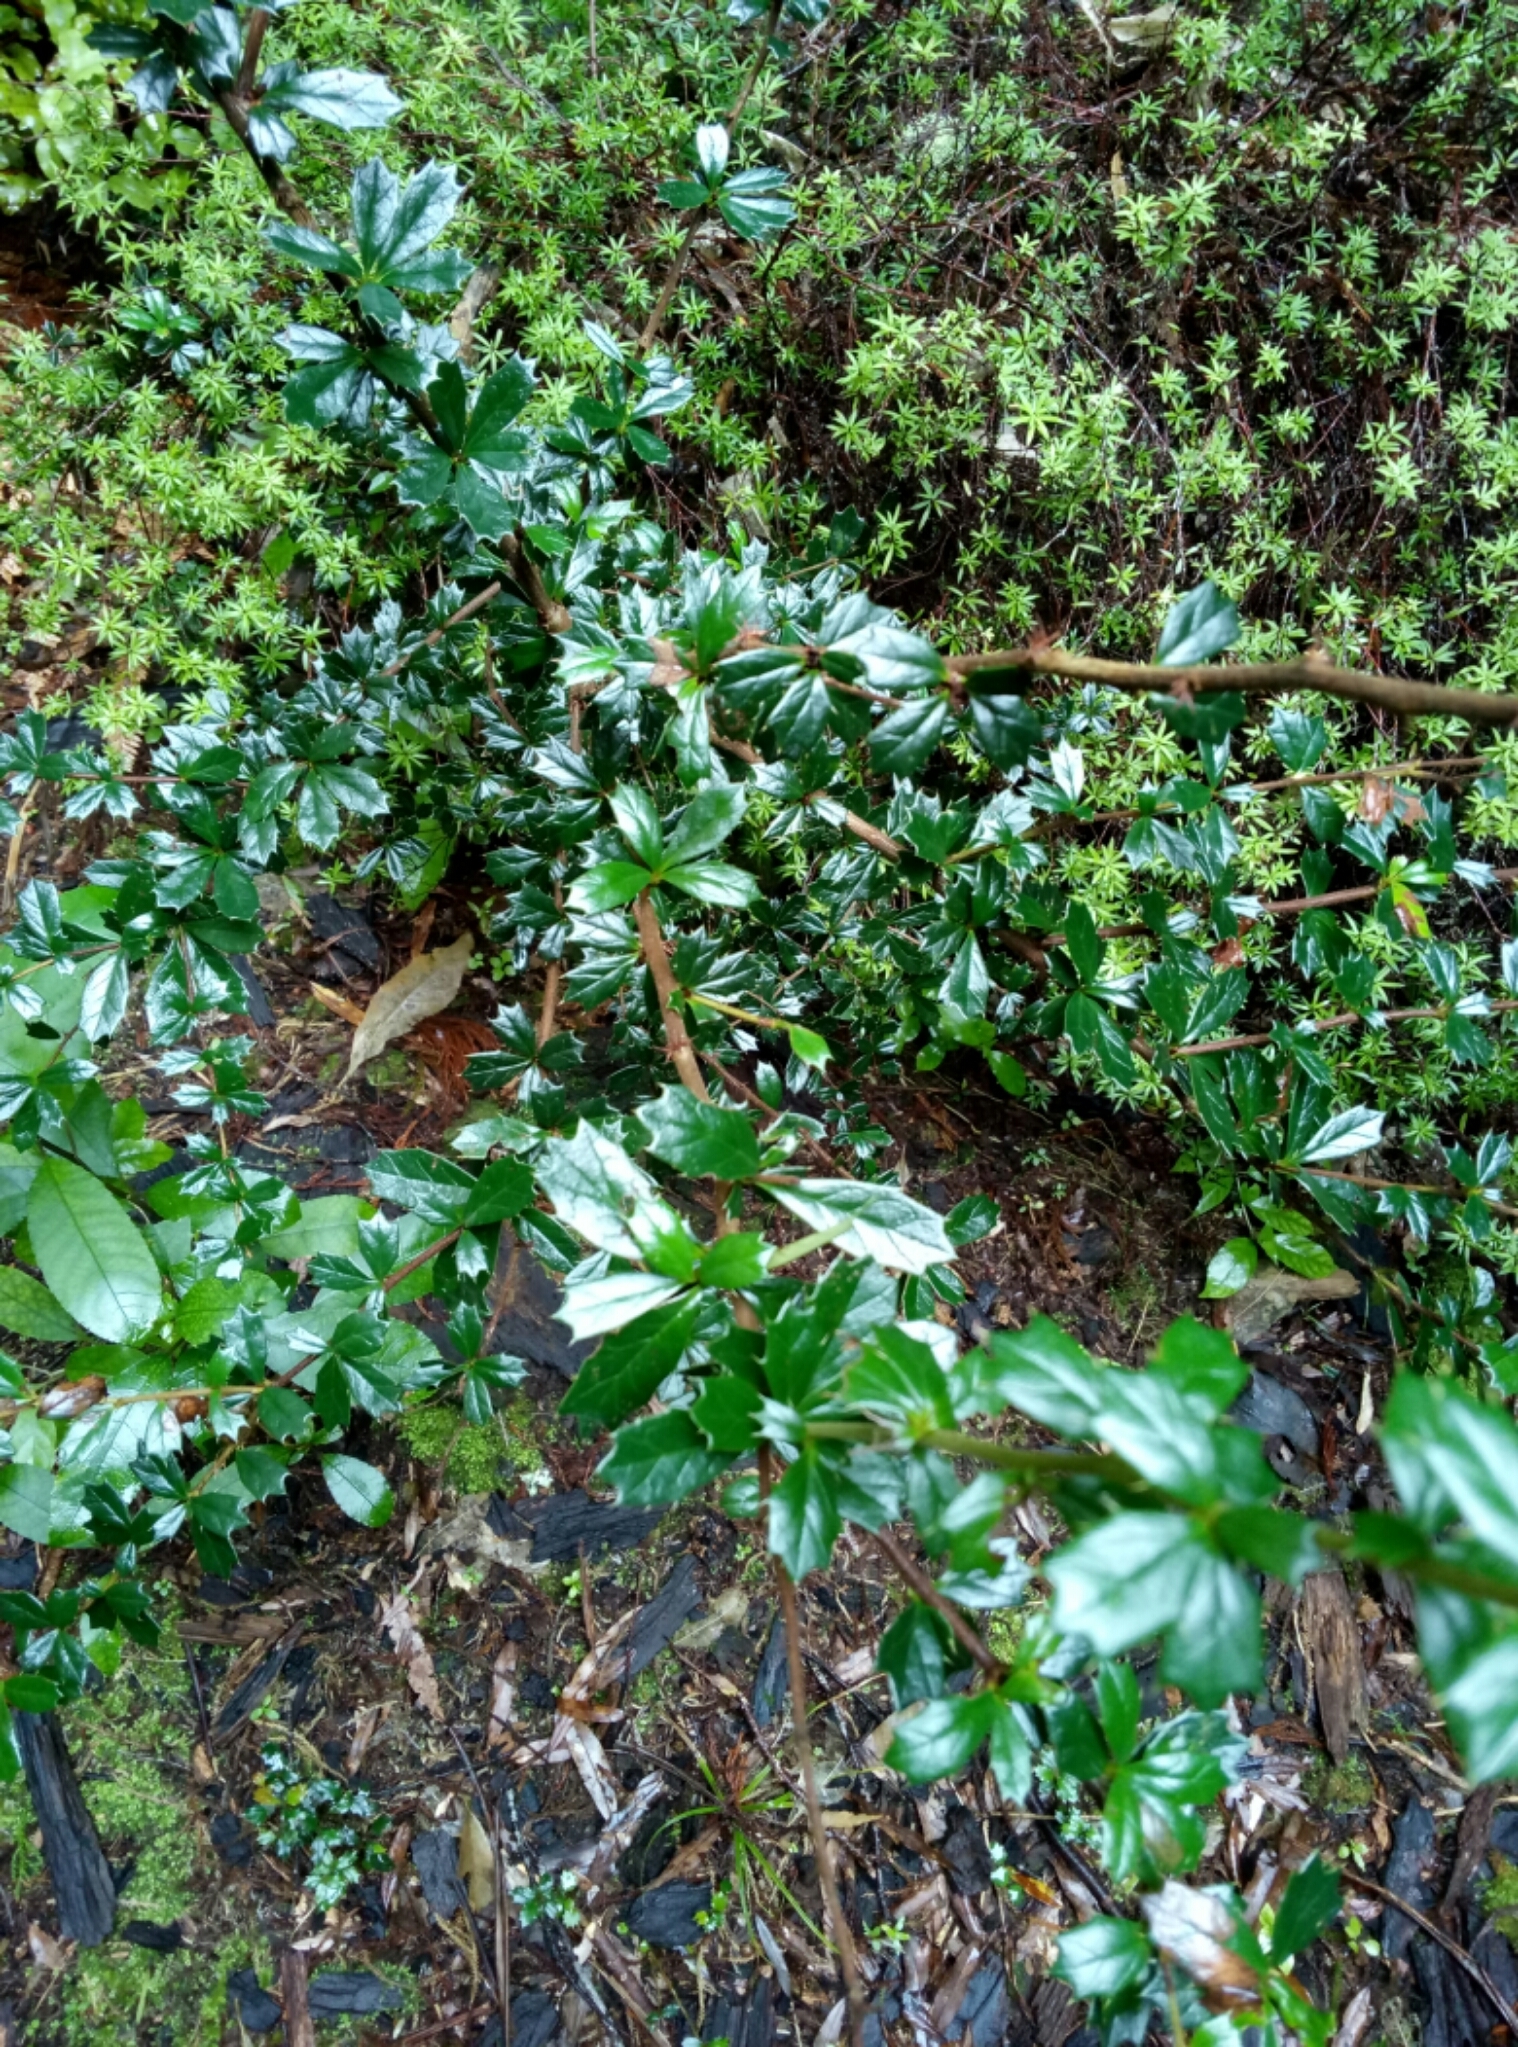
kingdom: Plantae
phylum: Tracheophyta
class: Magnoliopsida
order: Ranunculales
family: Berberidaceae
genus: Berberis
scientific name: Berberis darwinii
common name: Darwin's barberry
